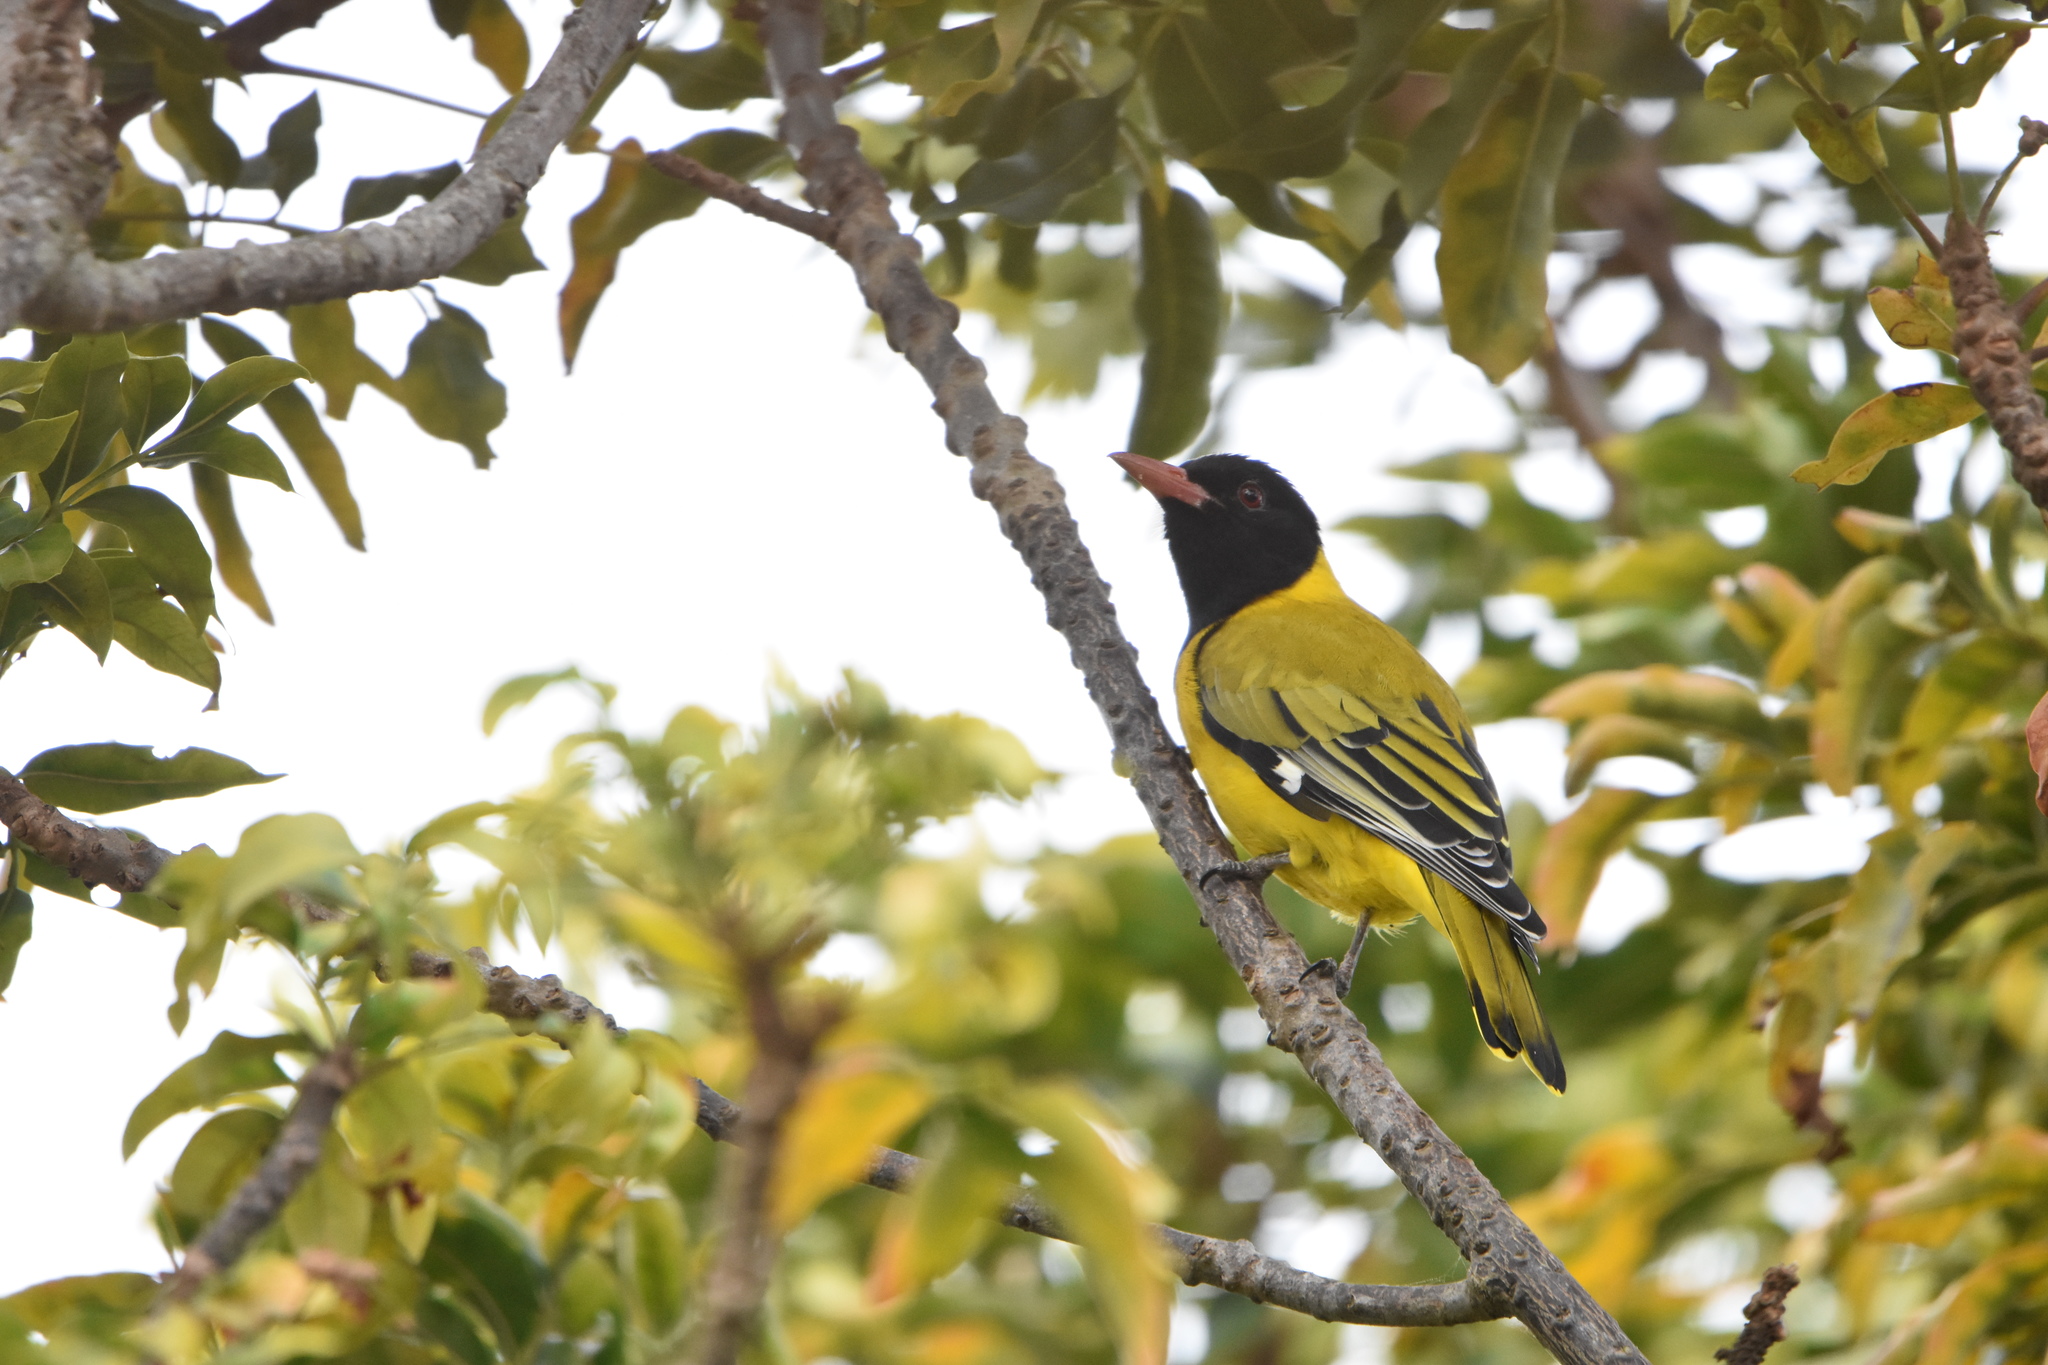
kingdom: Animalia
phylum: Chordata
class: Aves
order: Passeriformes
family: Oriolidae
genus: Oriolus
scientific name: Oriolus larvatus
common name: Black-headed oriole
